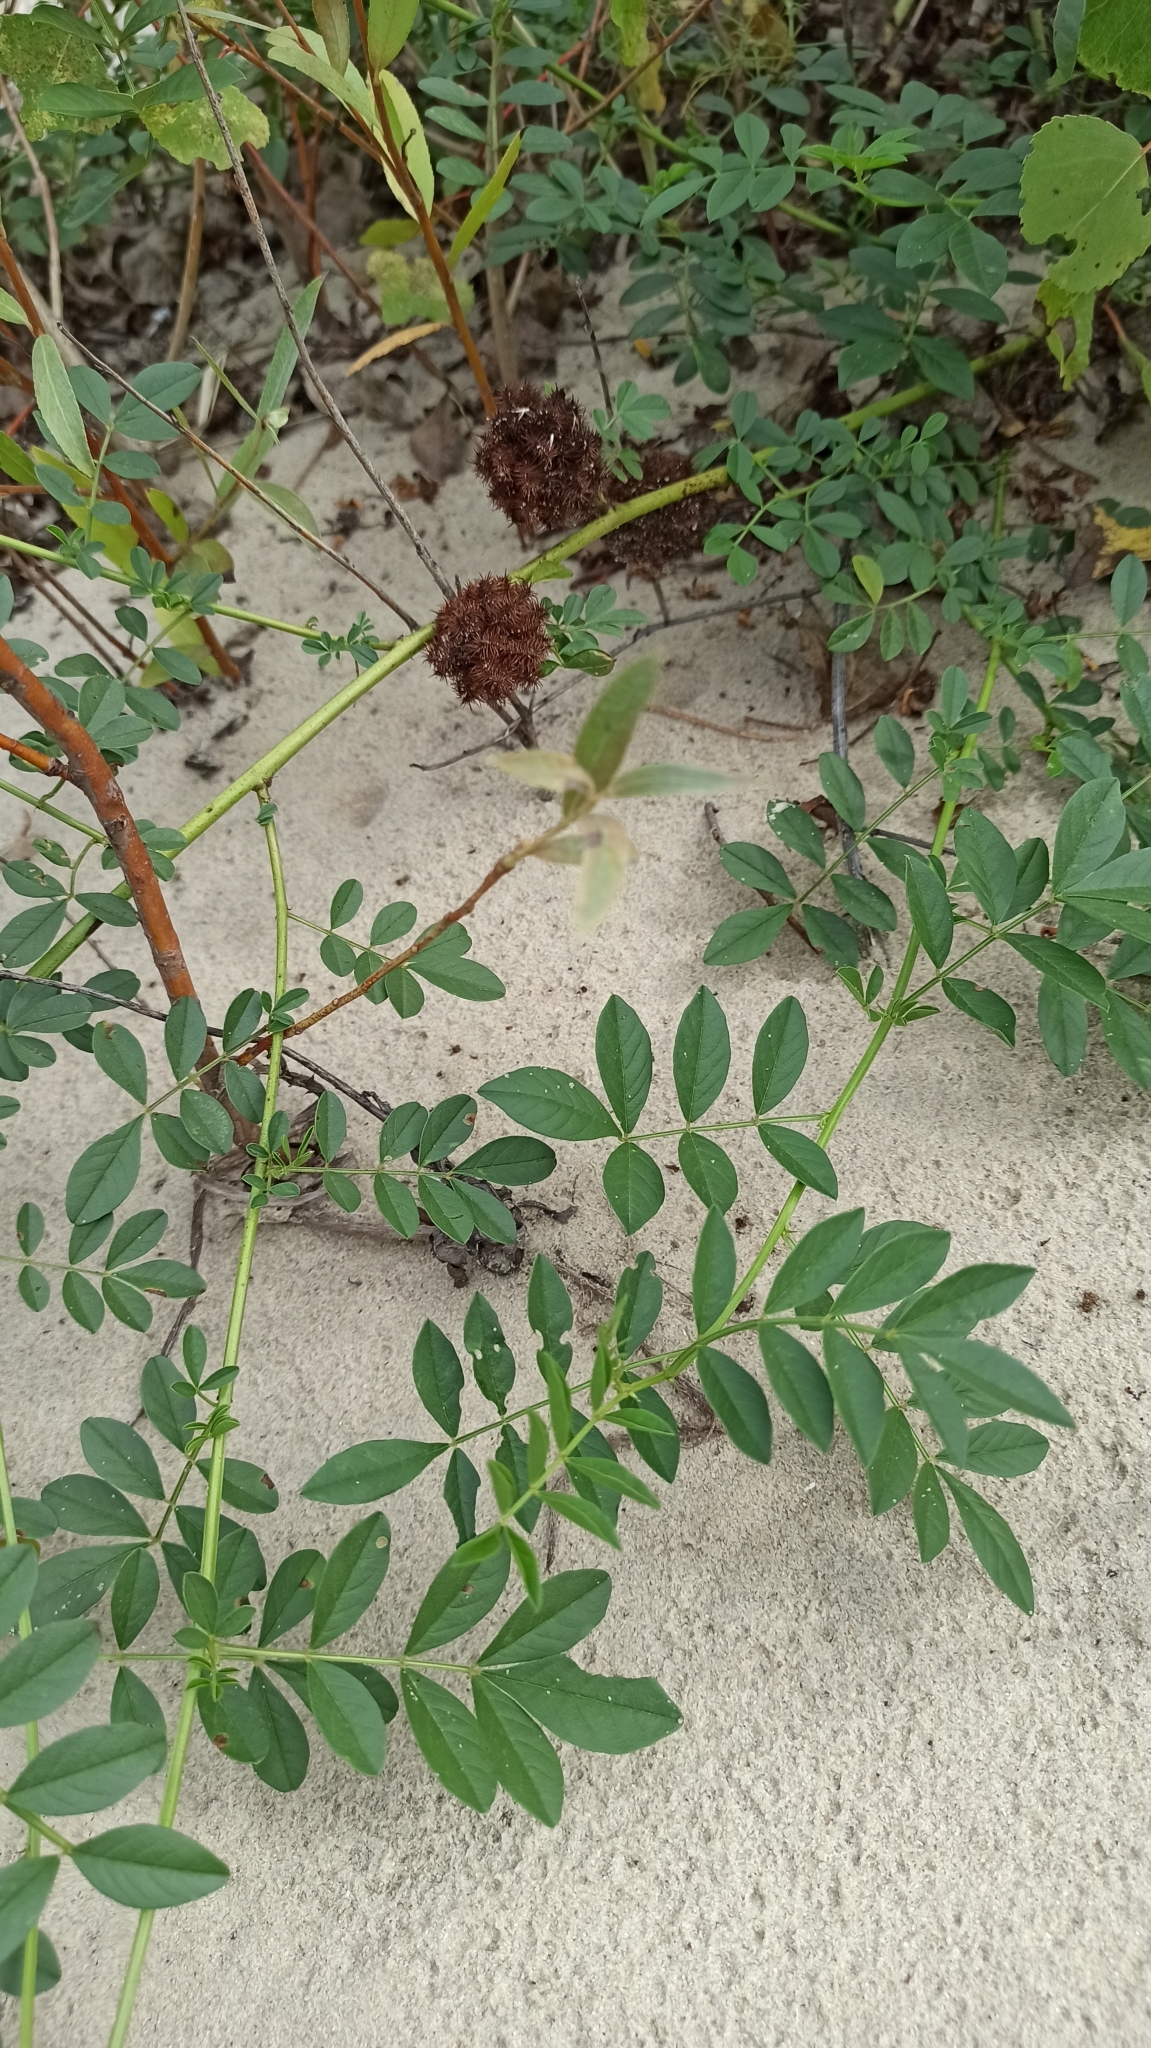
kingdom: Plantae
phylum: Tracheophyta
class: Magnoliopsida
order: Fabales
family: Fabaceae
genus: Glycyrrhiza
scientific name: Glycyrrhiza echinata
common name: German liquorice
